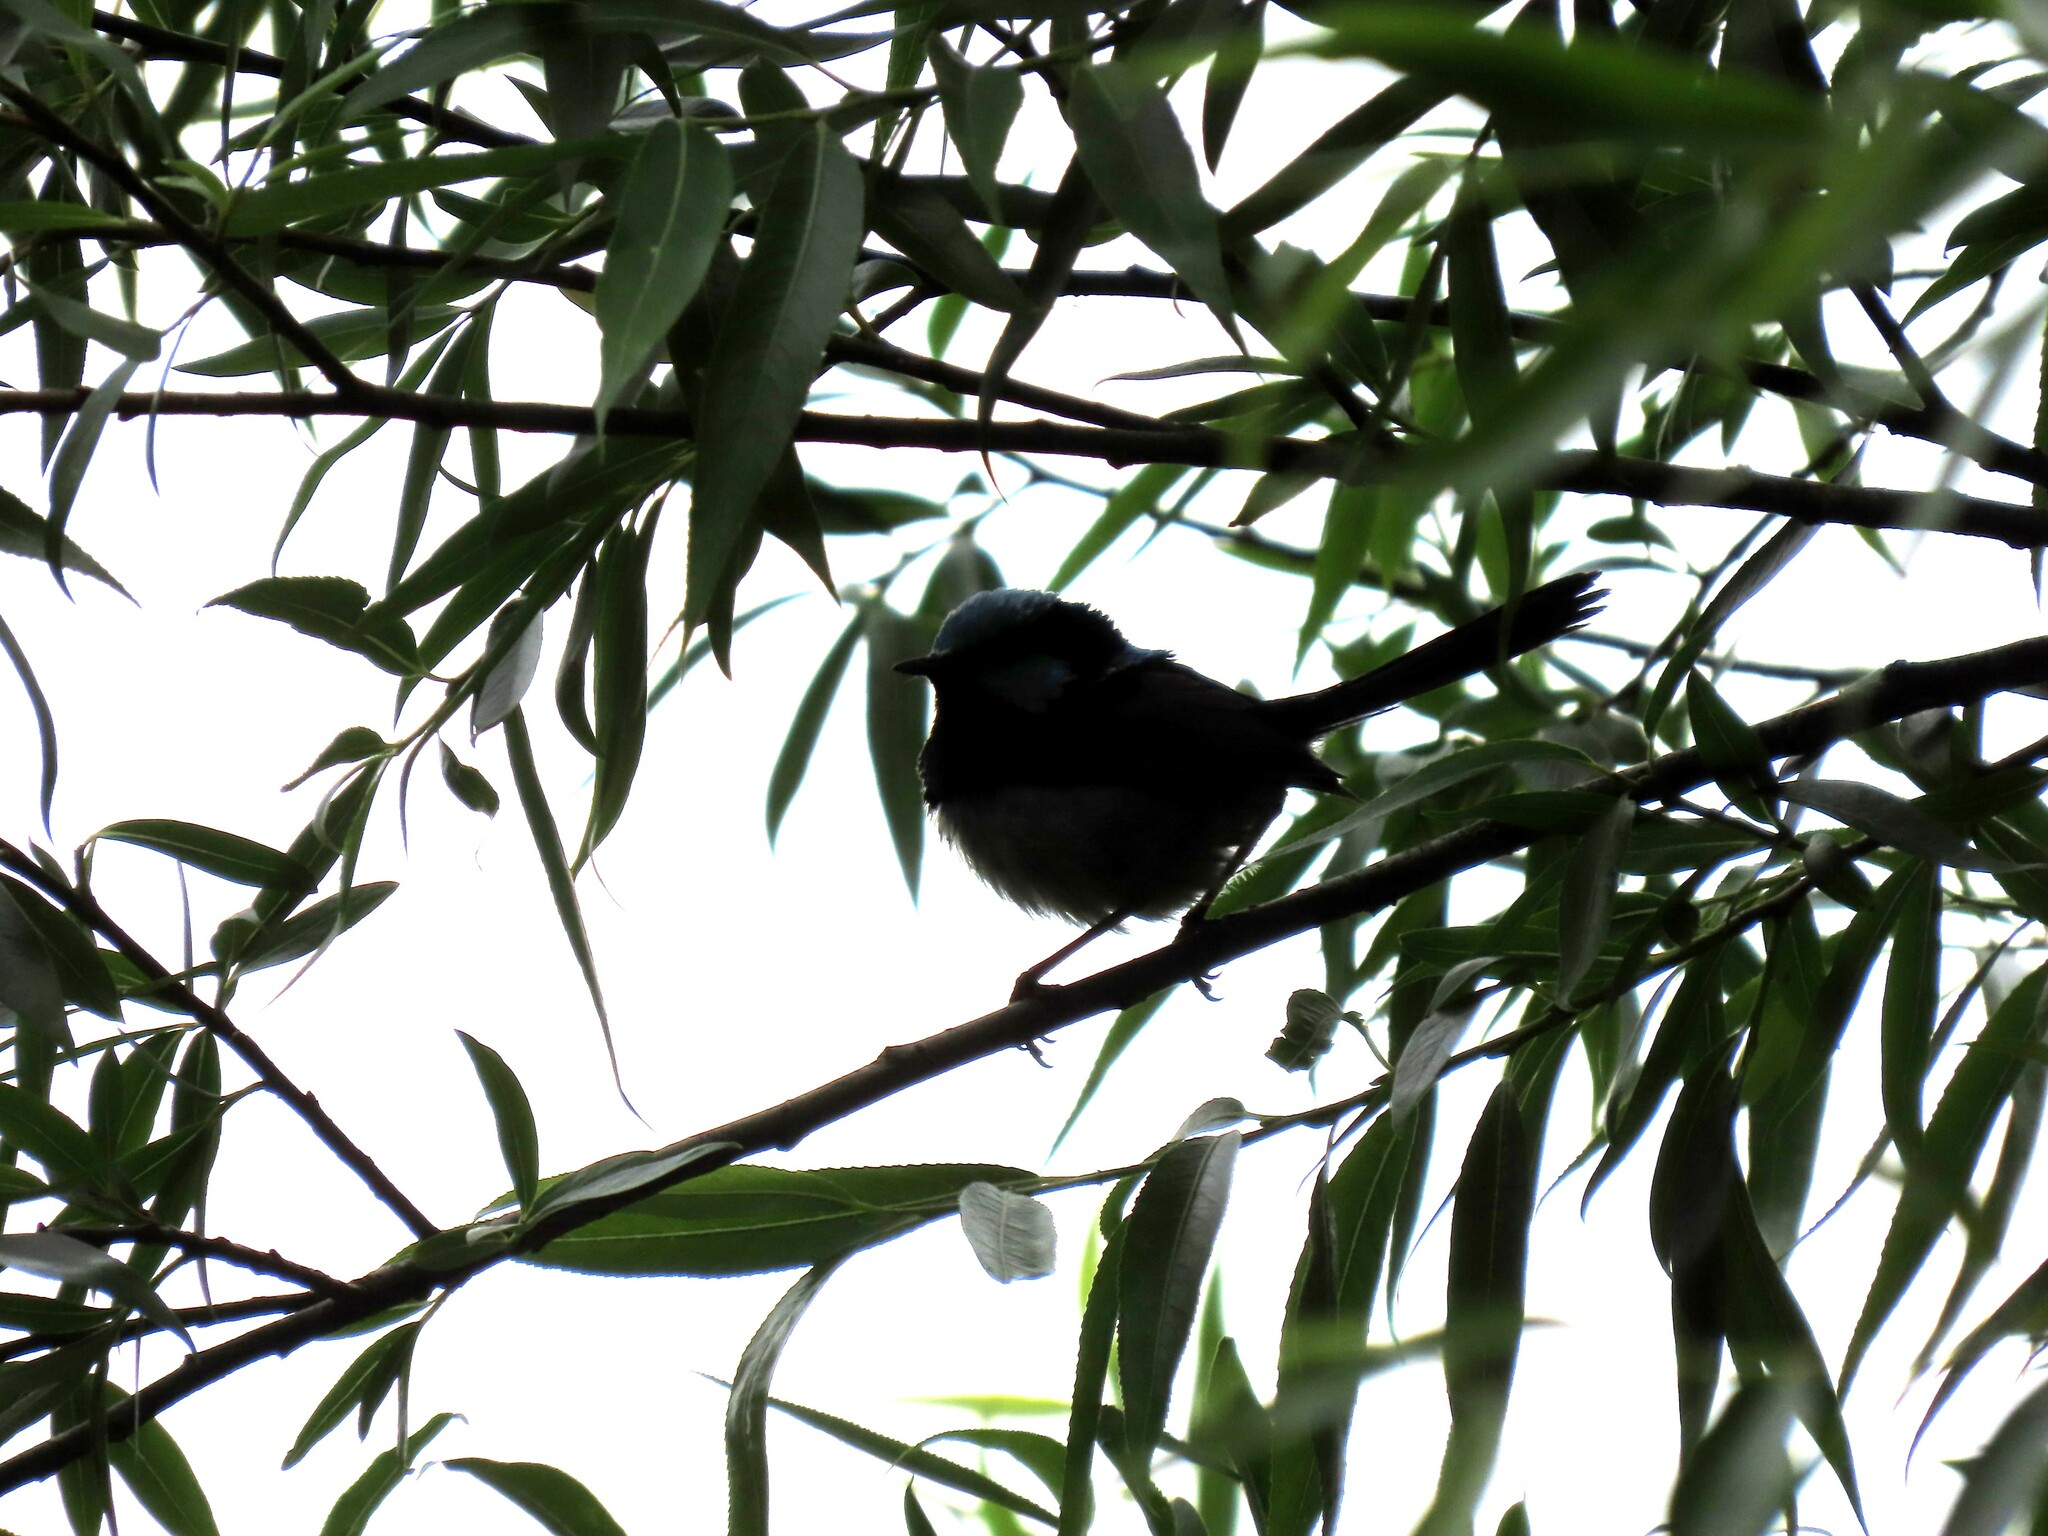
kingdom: Animalia
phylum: Chordata
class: Aves
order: Passeriformes
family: Maluridae
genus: Malurus
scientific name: Malurus cyaneus
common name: Superb fairywren
